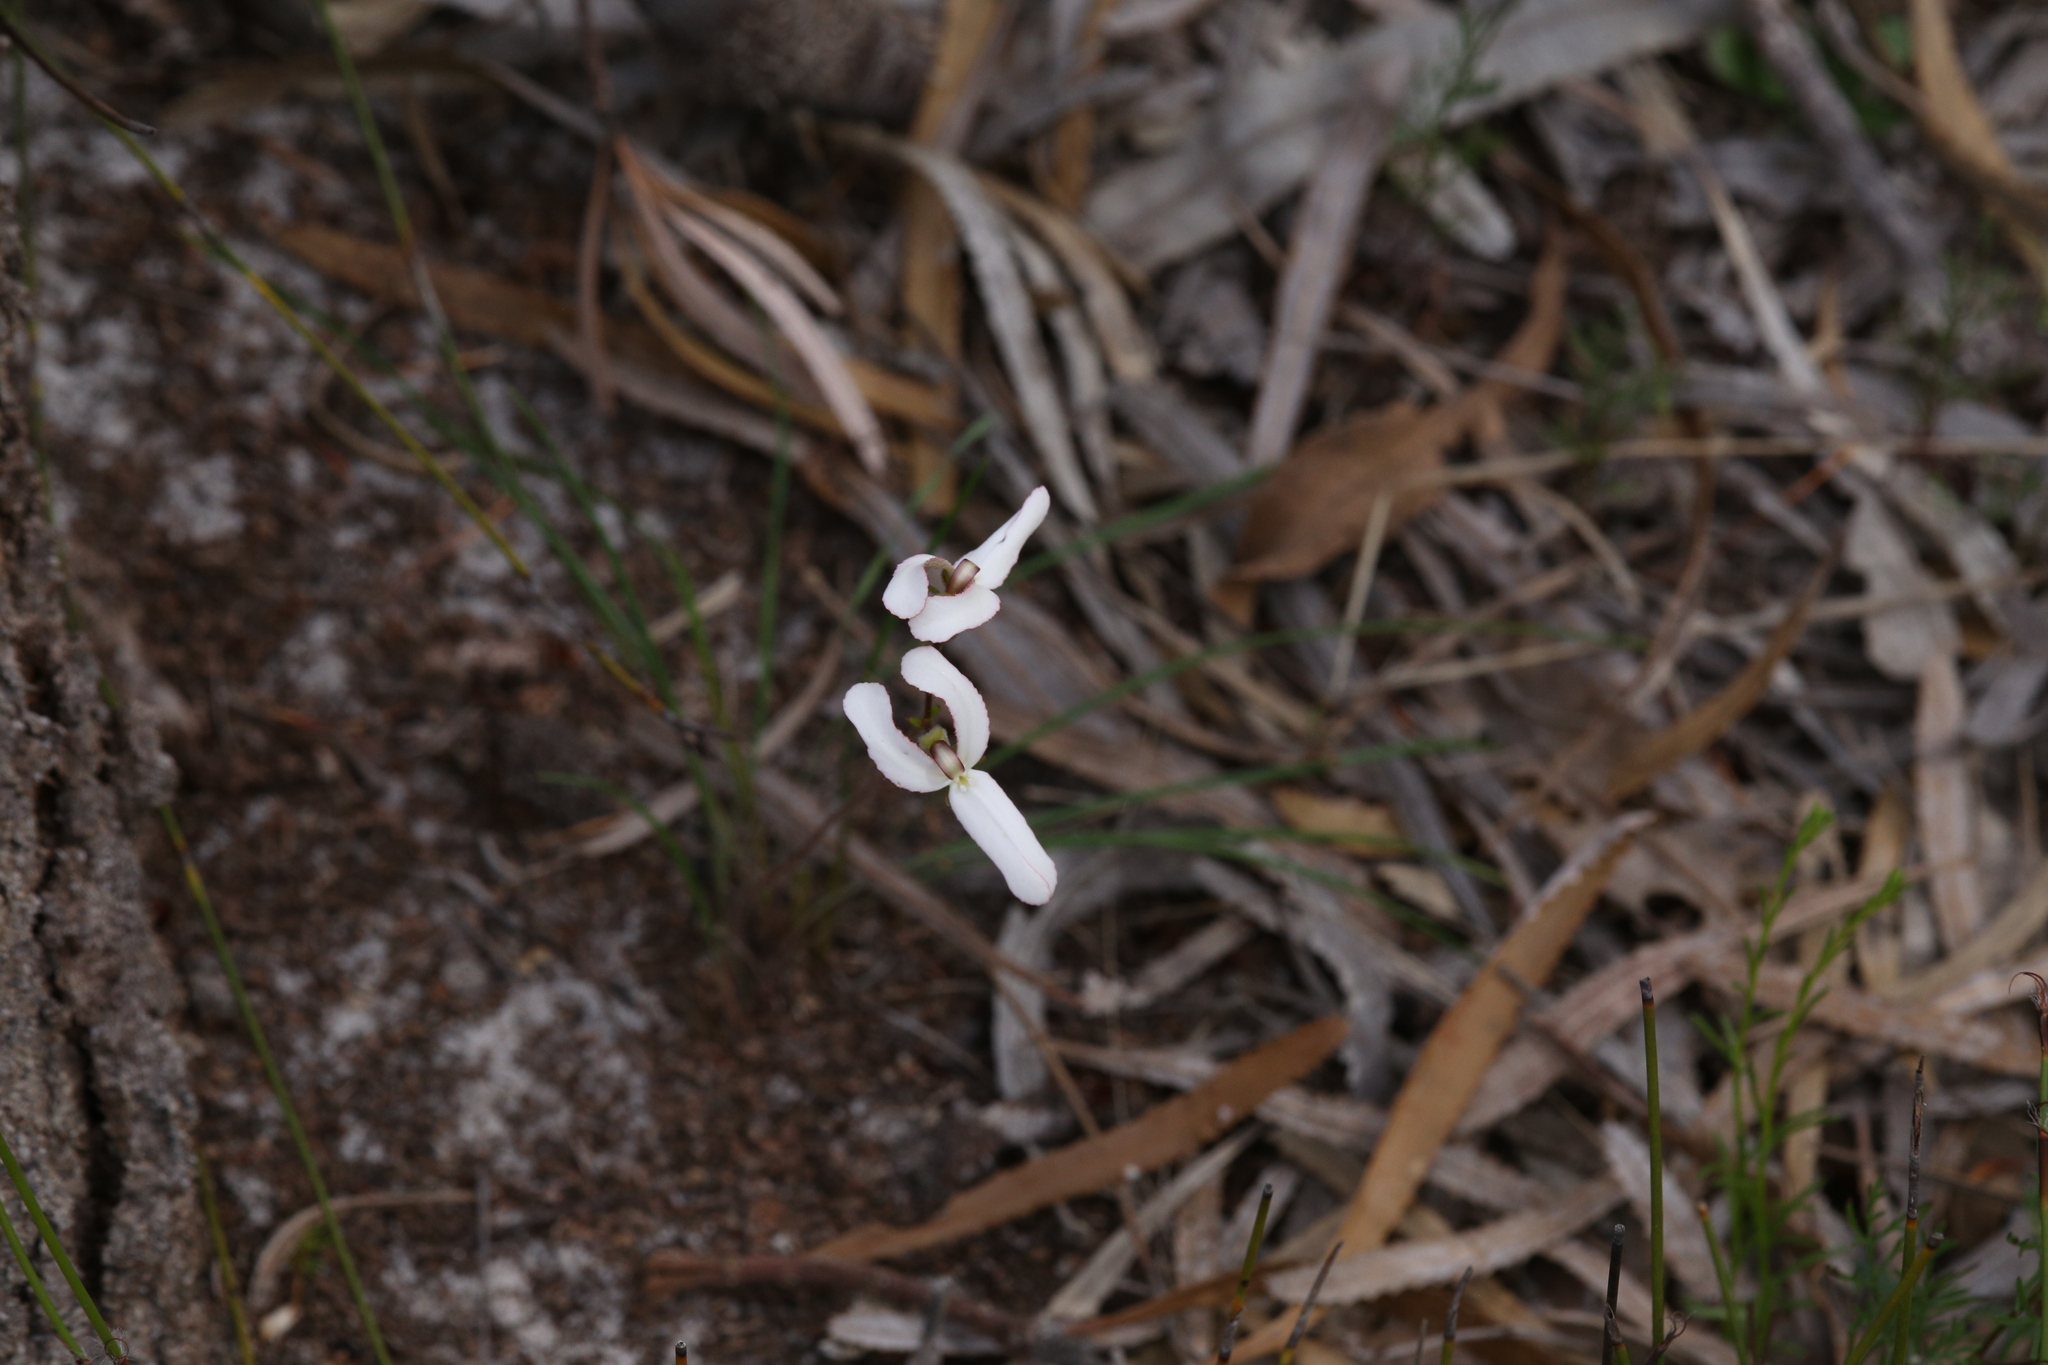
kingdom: Plantae
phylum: Tracheophyta
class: Magnoliopsida
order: Asterales
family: Stylidiaceae
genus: Stylidium
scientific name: Stylidium schoenoides
